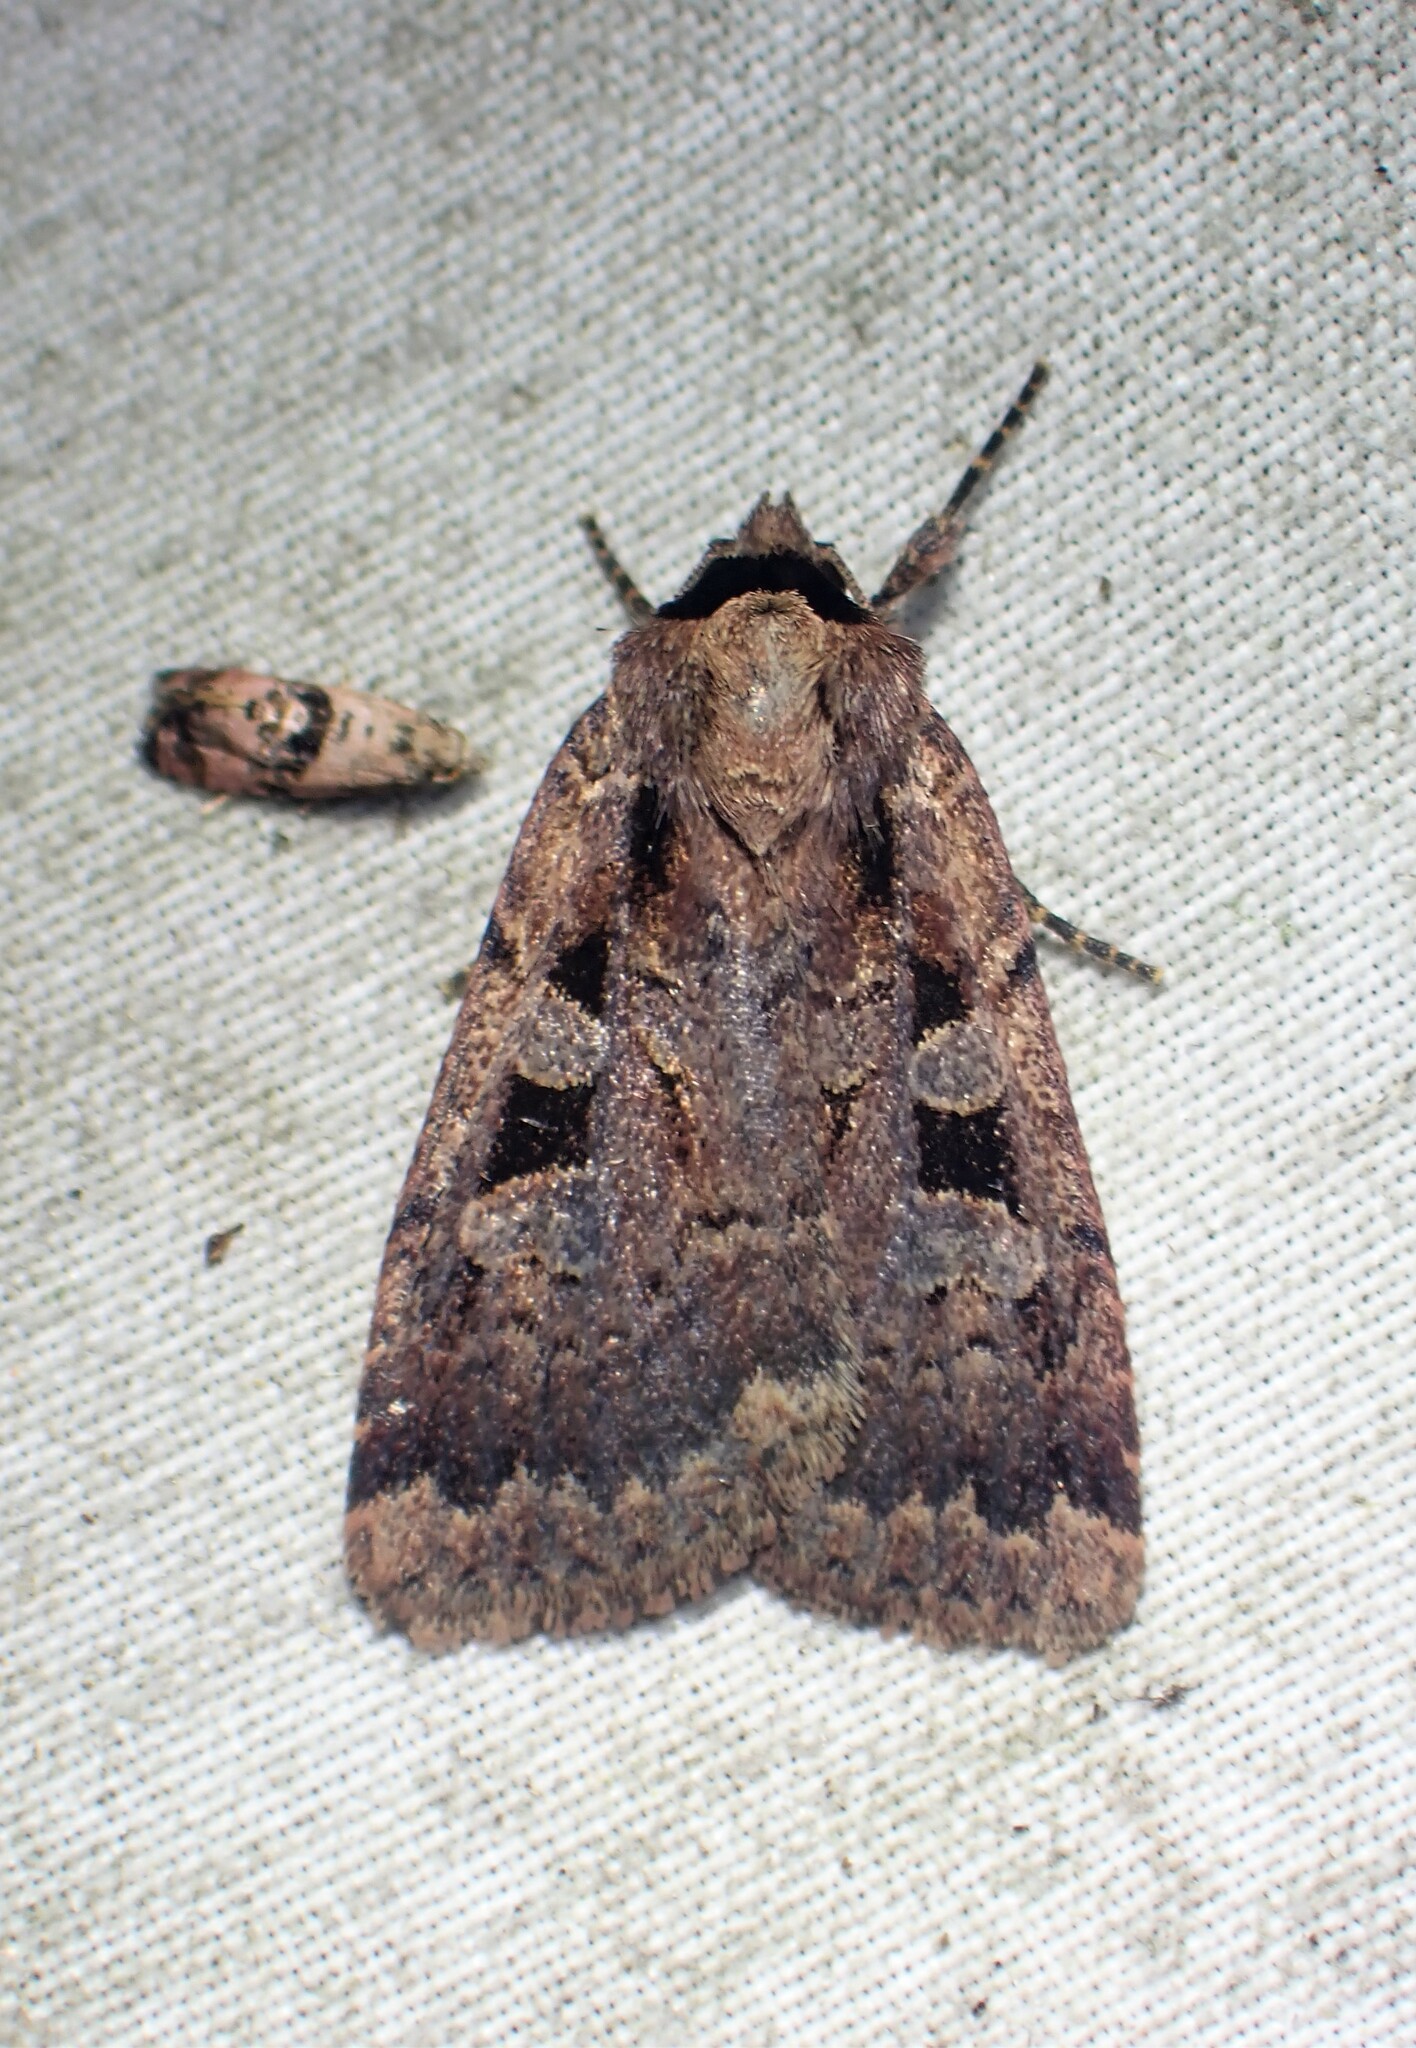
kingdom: Animalia
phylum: Arthropoda
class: Insecta
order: Lepidoptera
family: Noctuidae
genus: Eueretagrotis
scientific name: Eueretagrotis perattentus
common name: Two-spot dart moth
